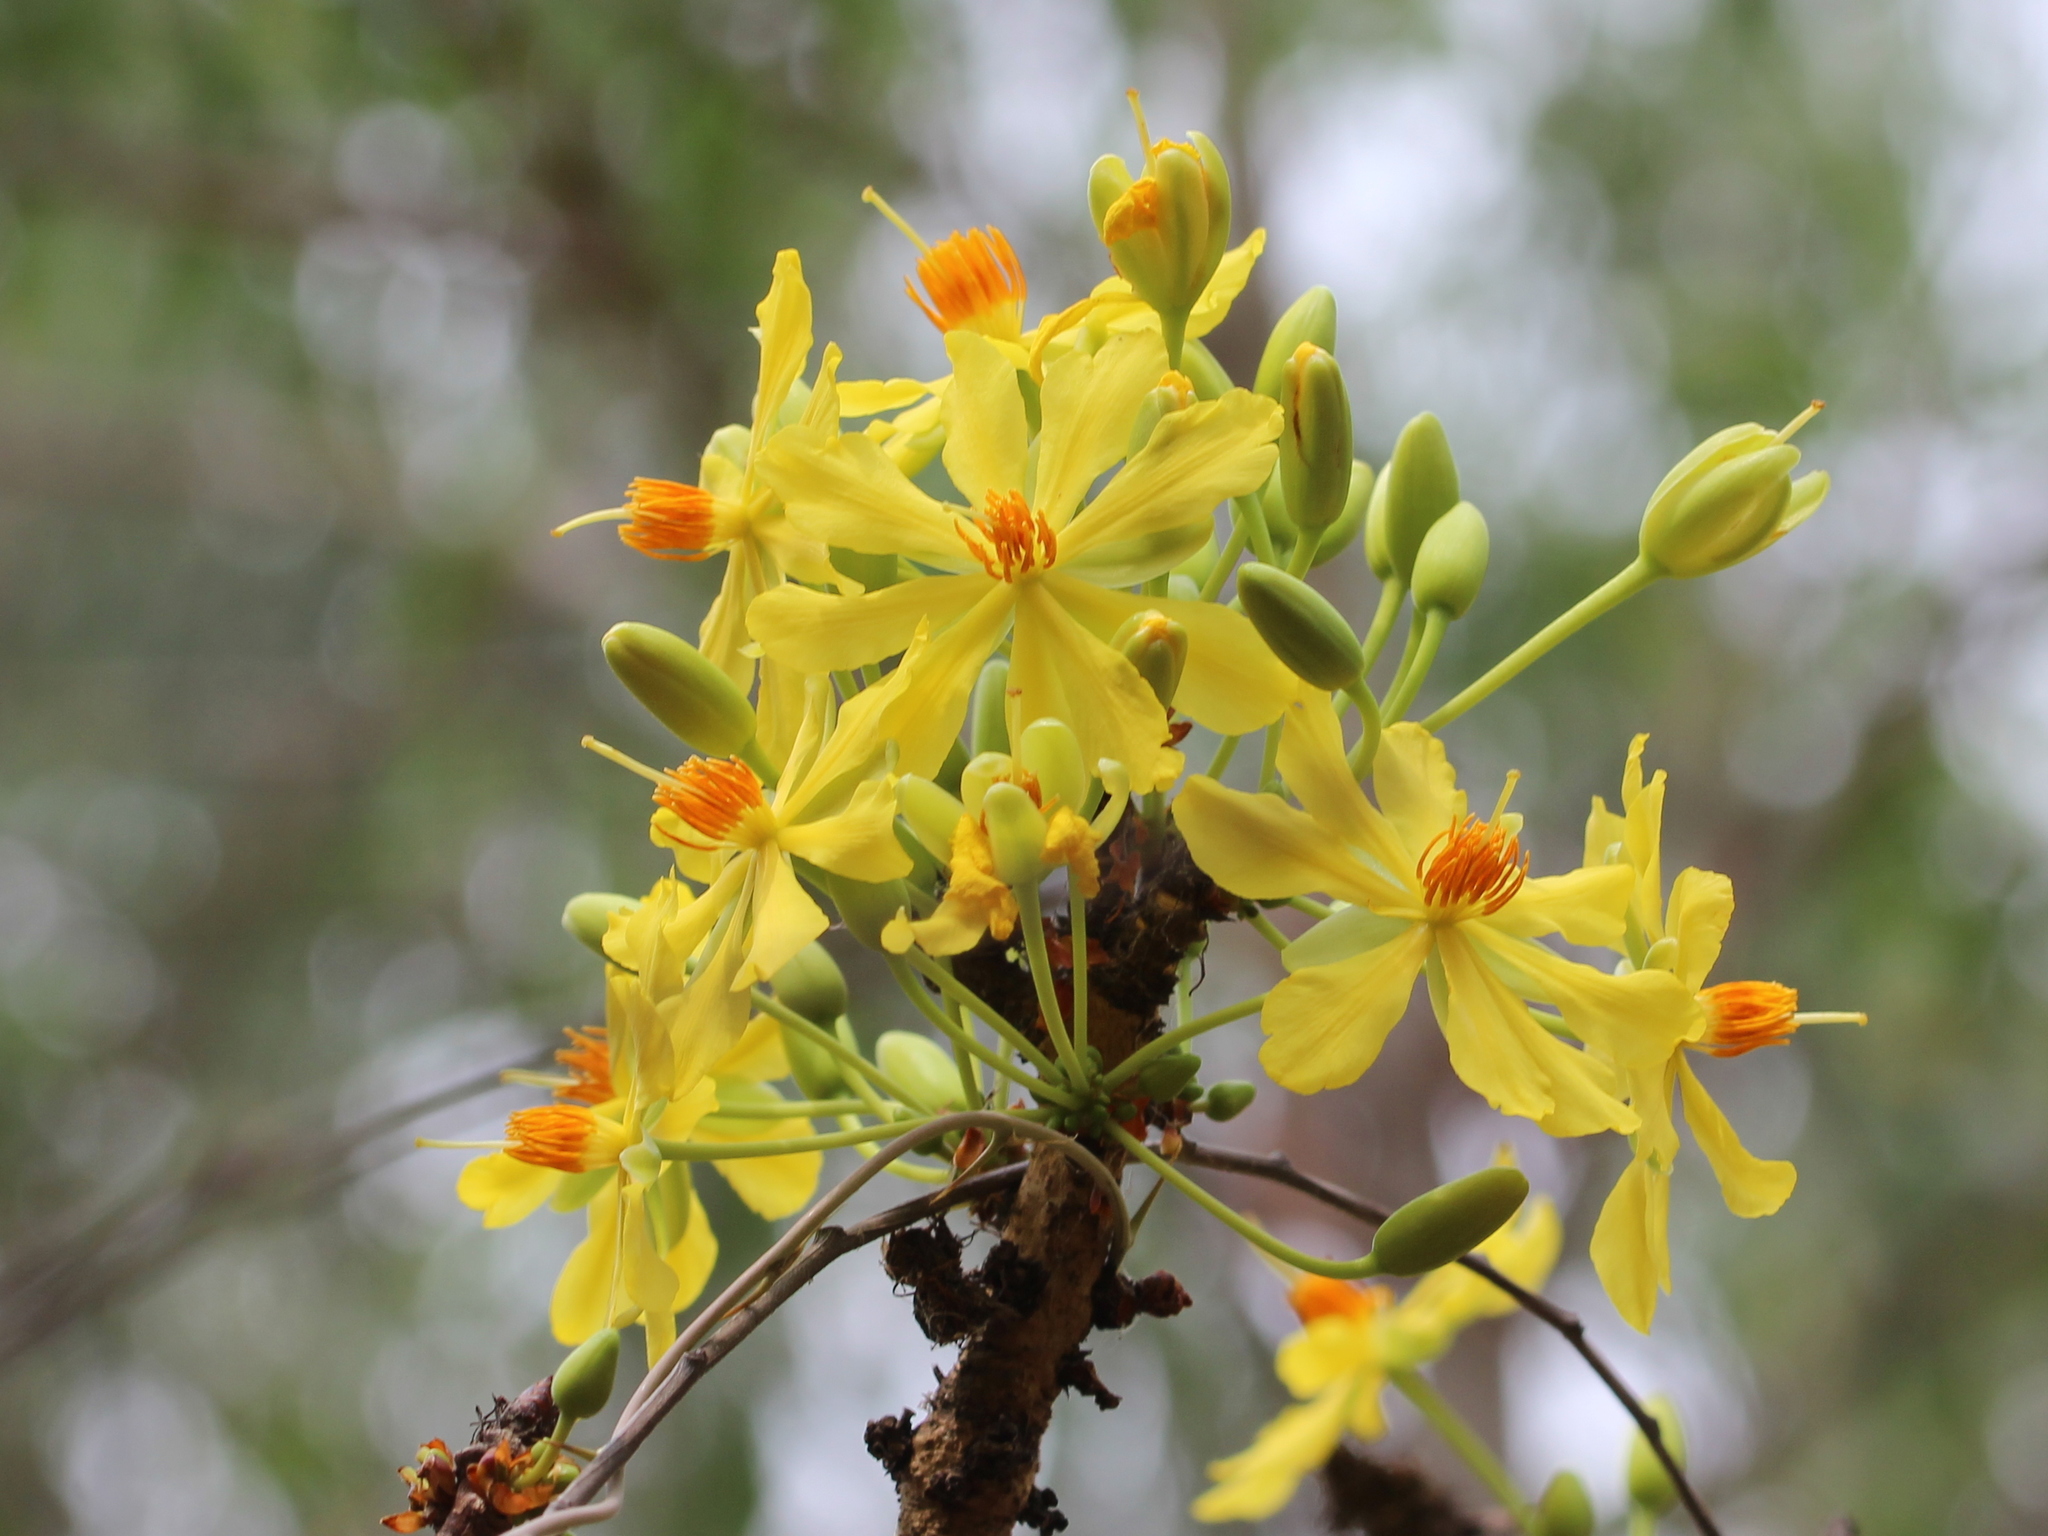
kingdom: Plantae
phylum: Tracheophyta
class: Magnoliopsida
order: Malpighiales
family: Ochnaceae
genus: Ochna
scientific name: Ochna obtusata
